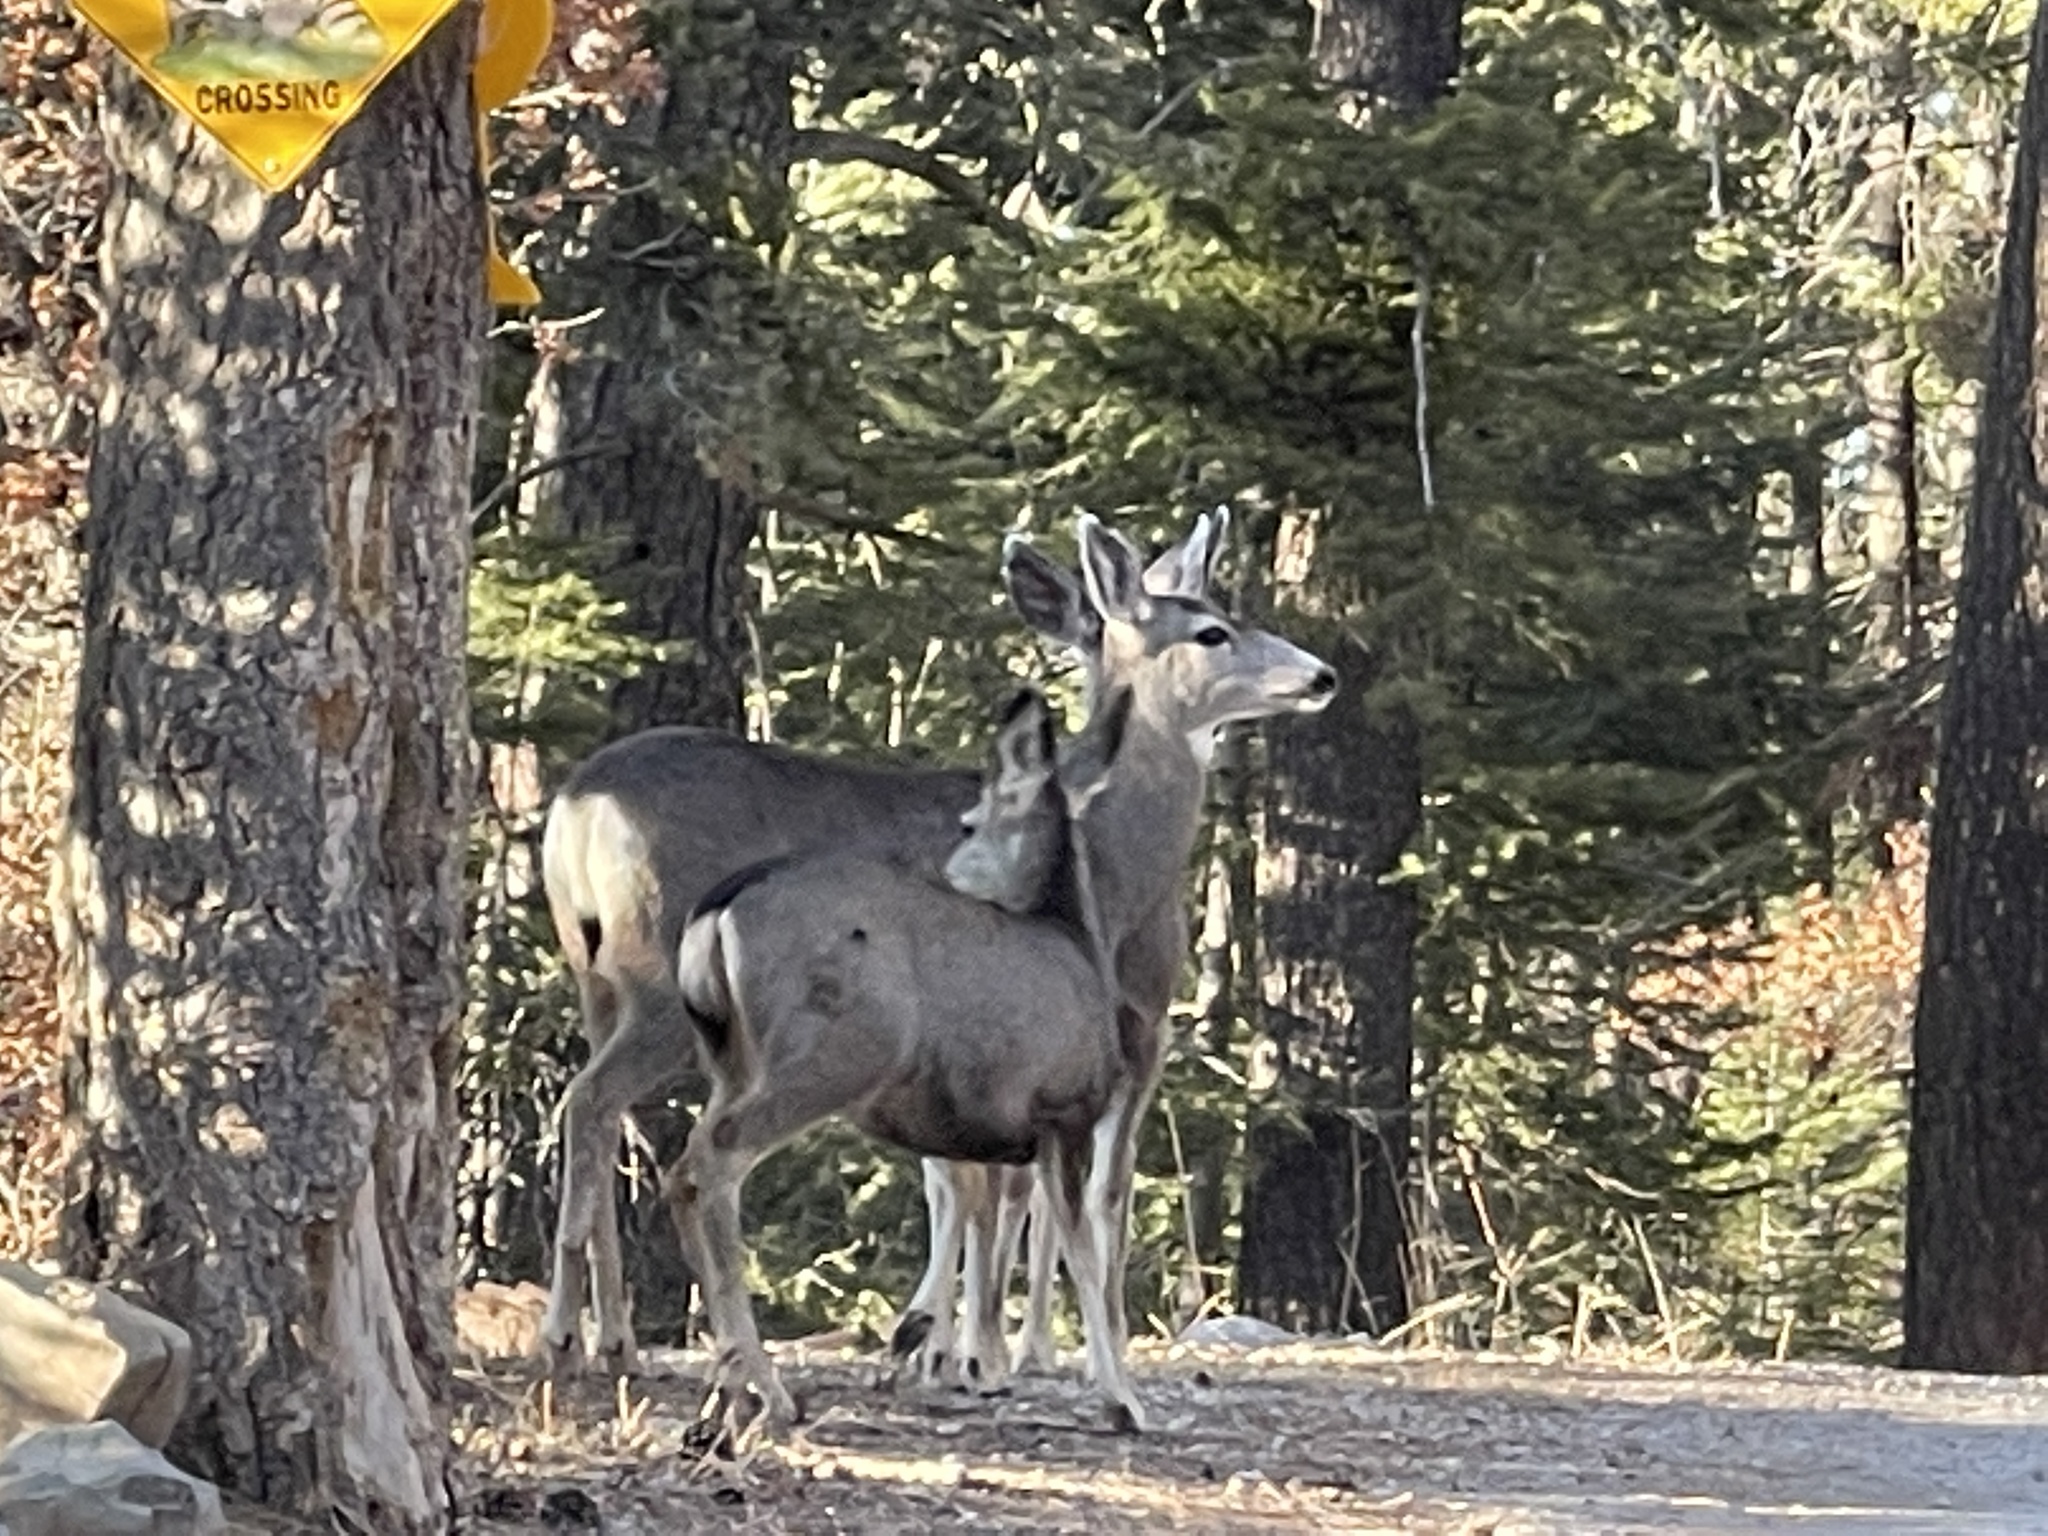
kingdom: Animalia
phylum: Chordata
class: Mammalia
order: Artiodactyla
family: Cervidae
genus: Odocoileus
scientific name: Odocoileus hemionus
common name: Mule deer
